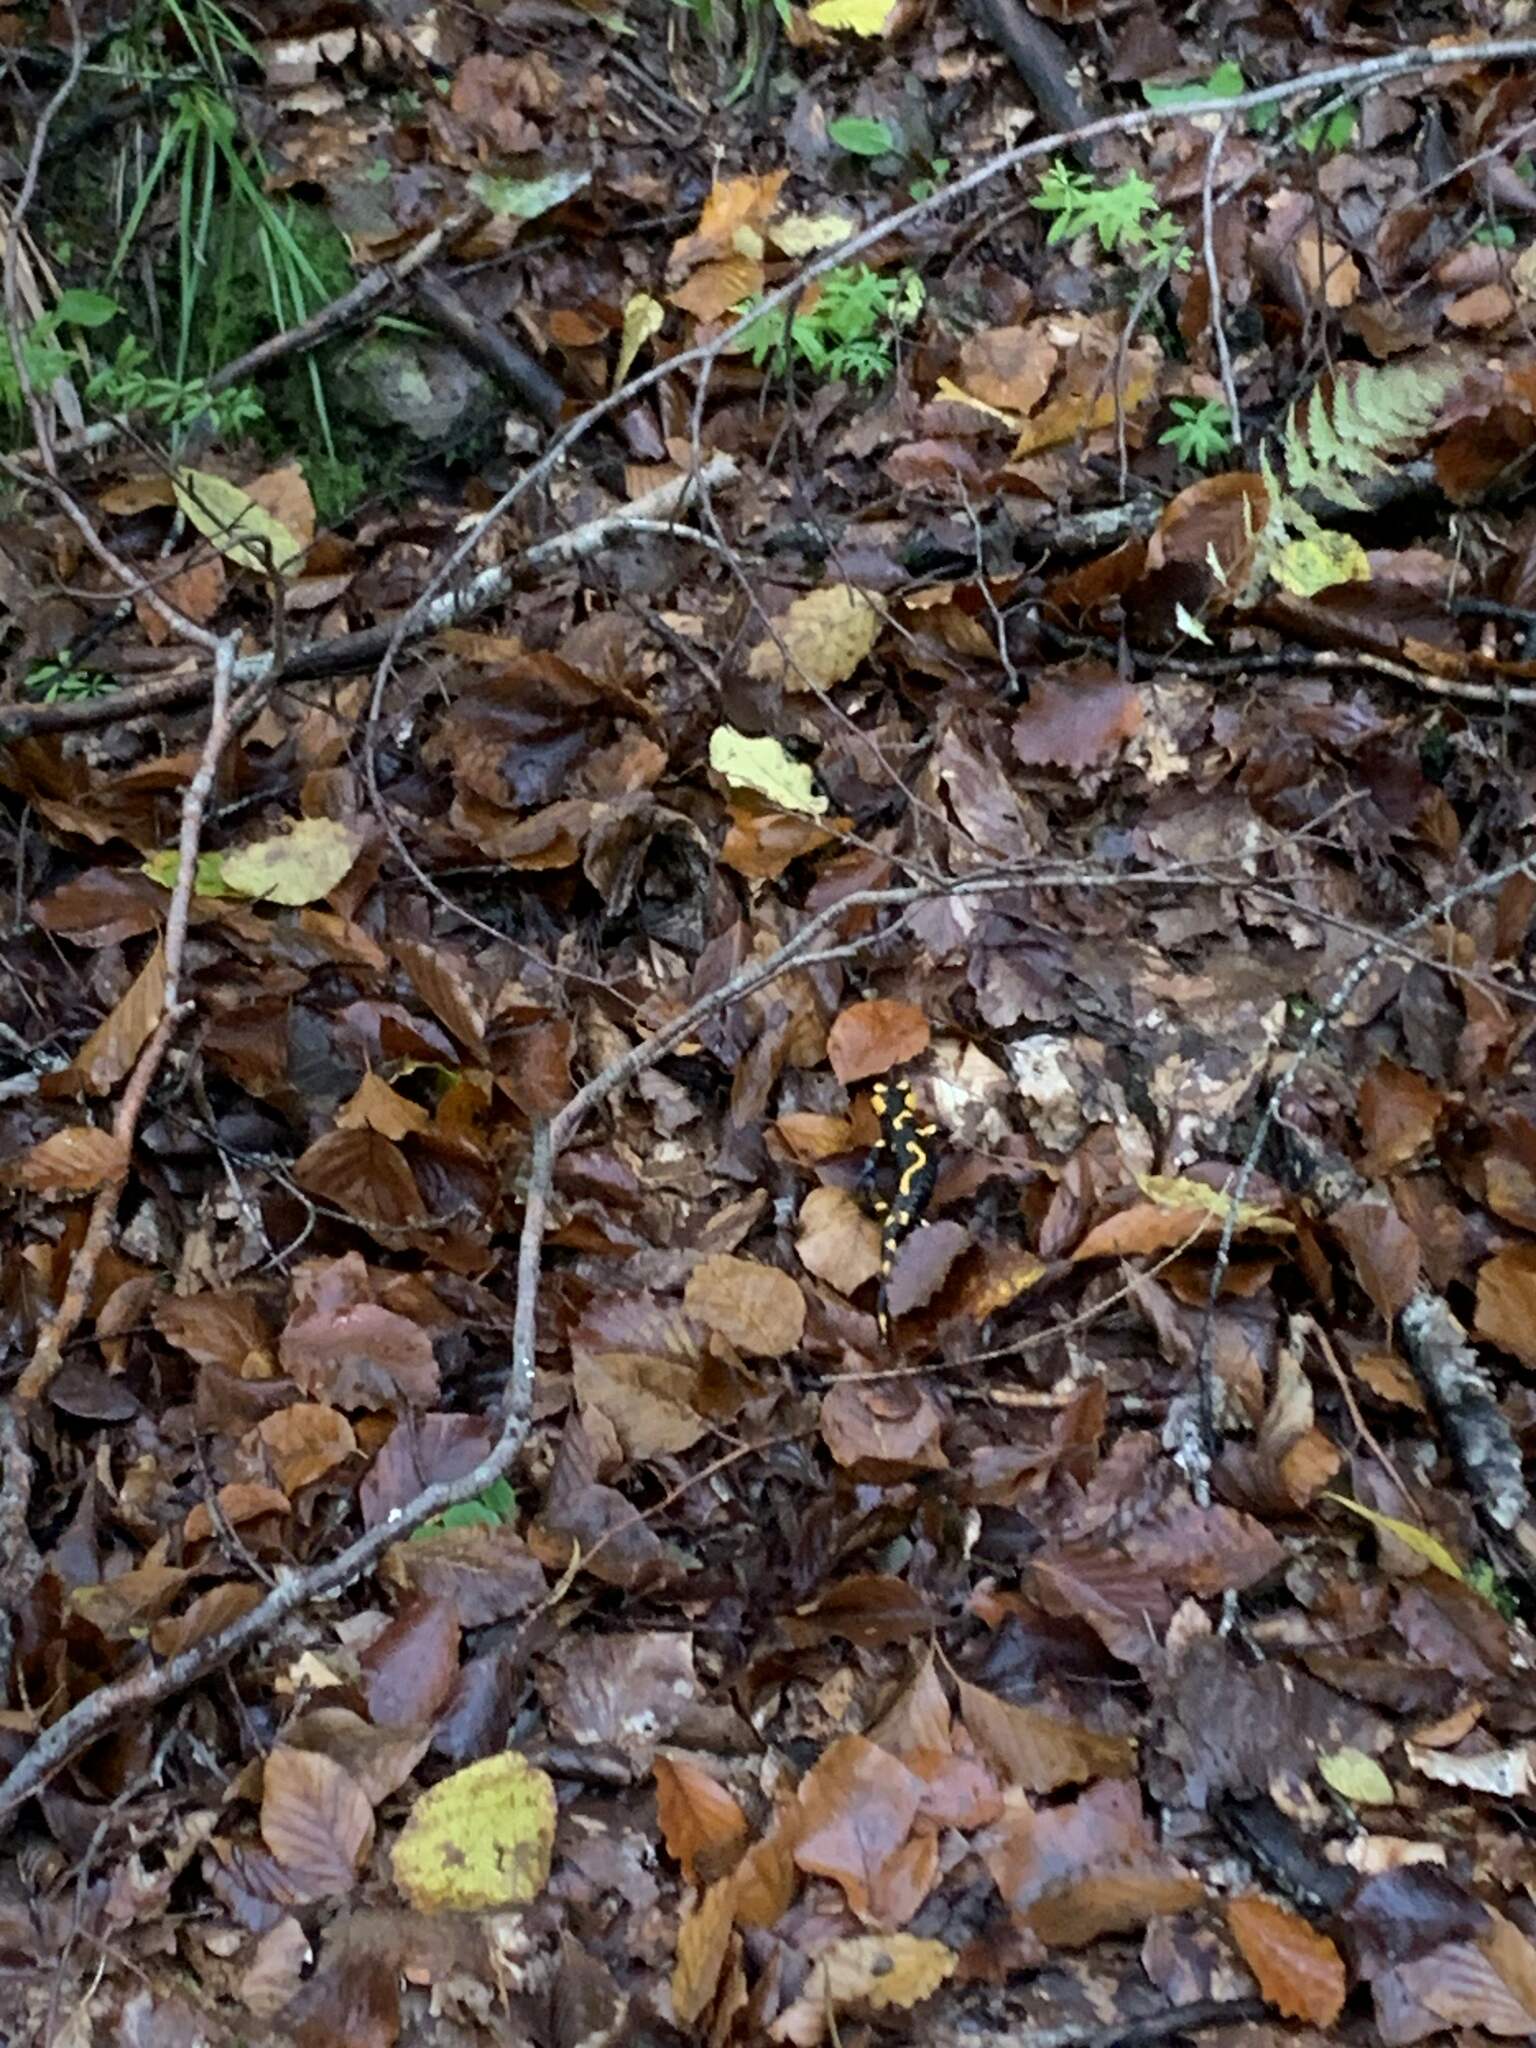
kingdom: Animalia
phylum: Chordata
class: Amphibia
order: Caudata
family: Salamandridae
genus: Salamandra
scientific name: Salamandra salamandra
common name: Fire salamander
